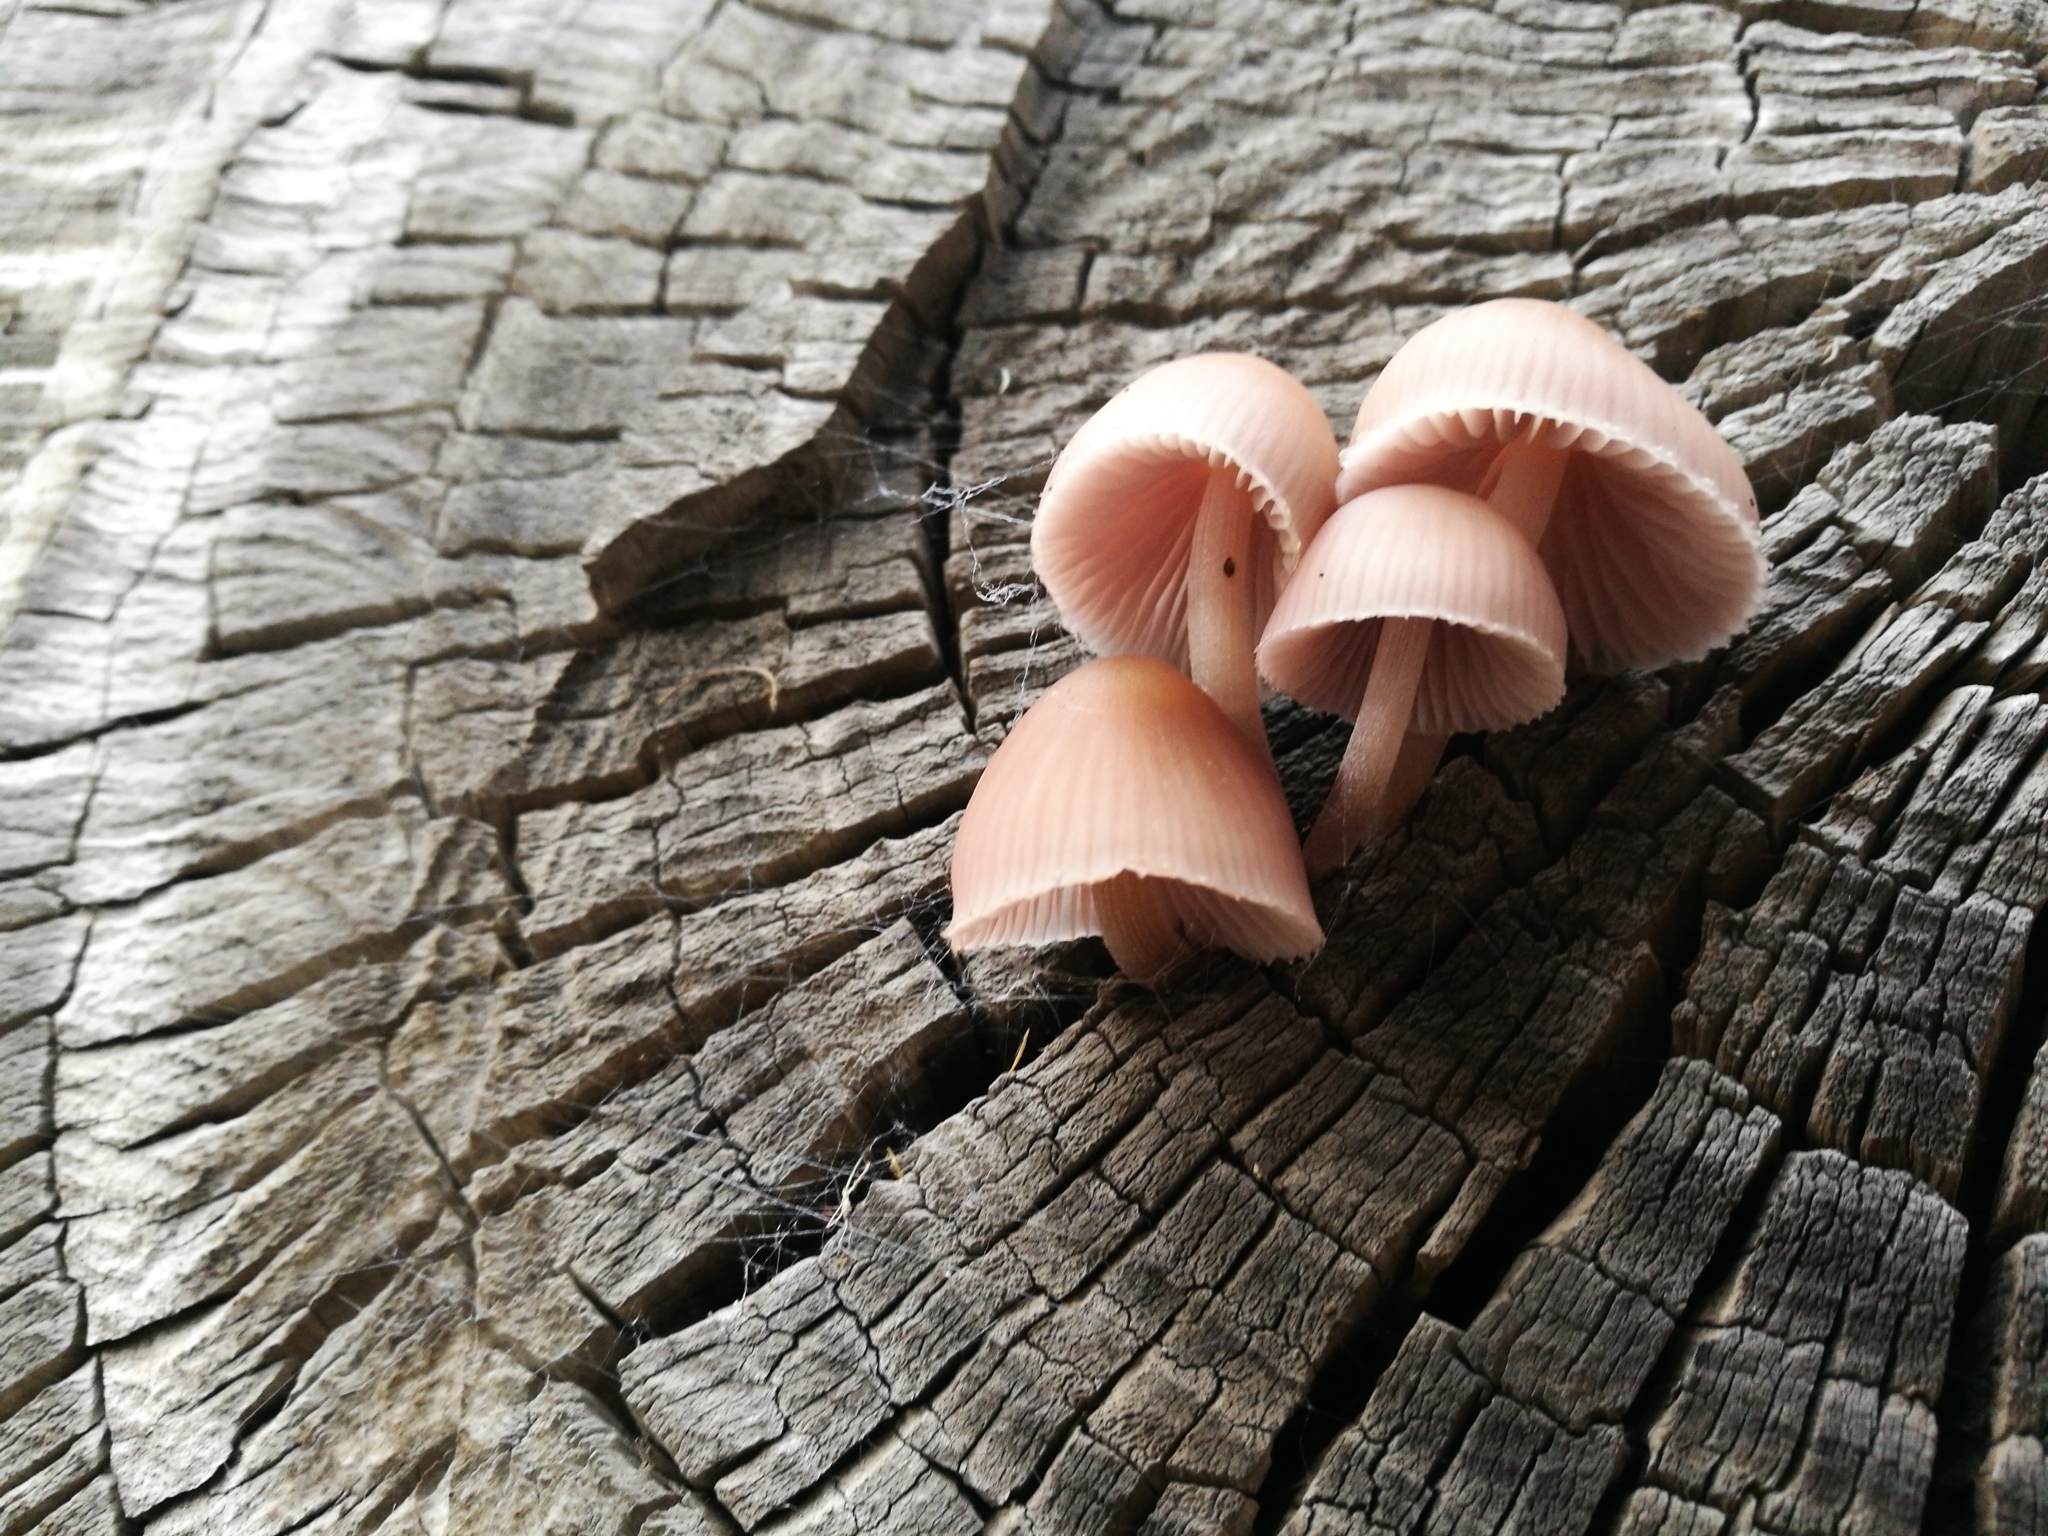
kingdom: Fungi
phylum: Basidiomycota
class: Agaricomycetes
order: Agaricales
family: Mycenaceae
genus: Mycena
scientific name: Mycena clarkeana
